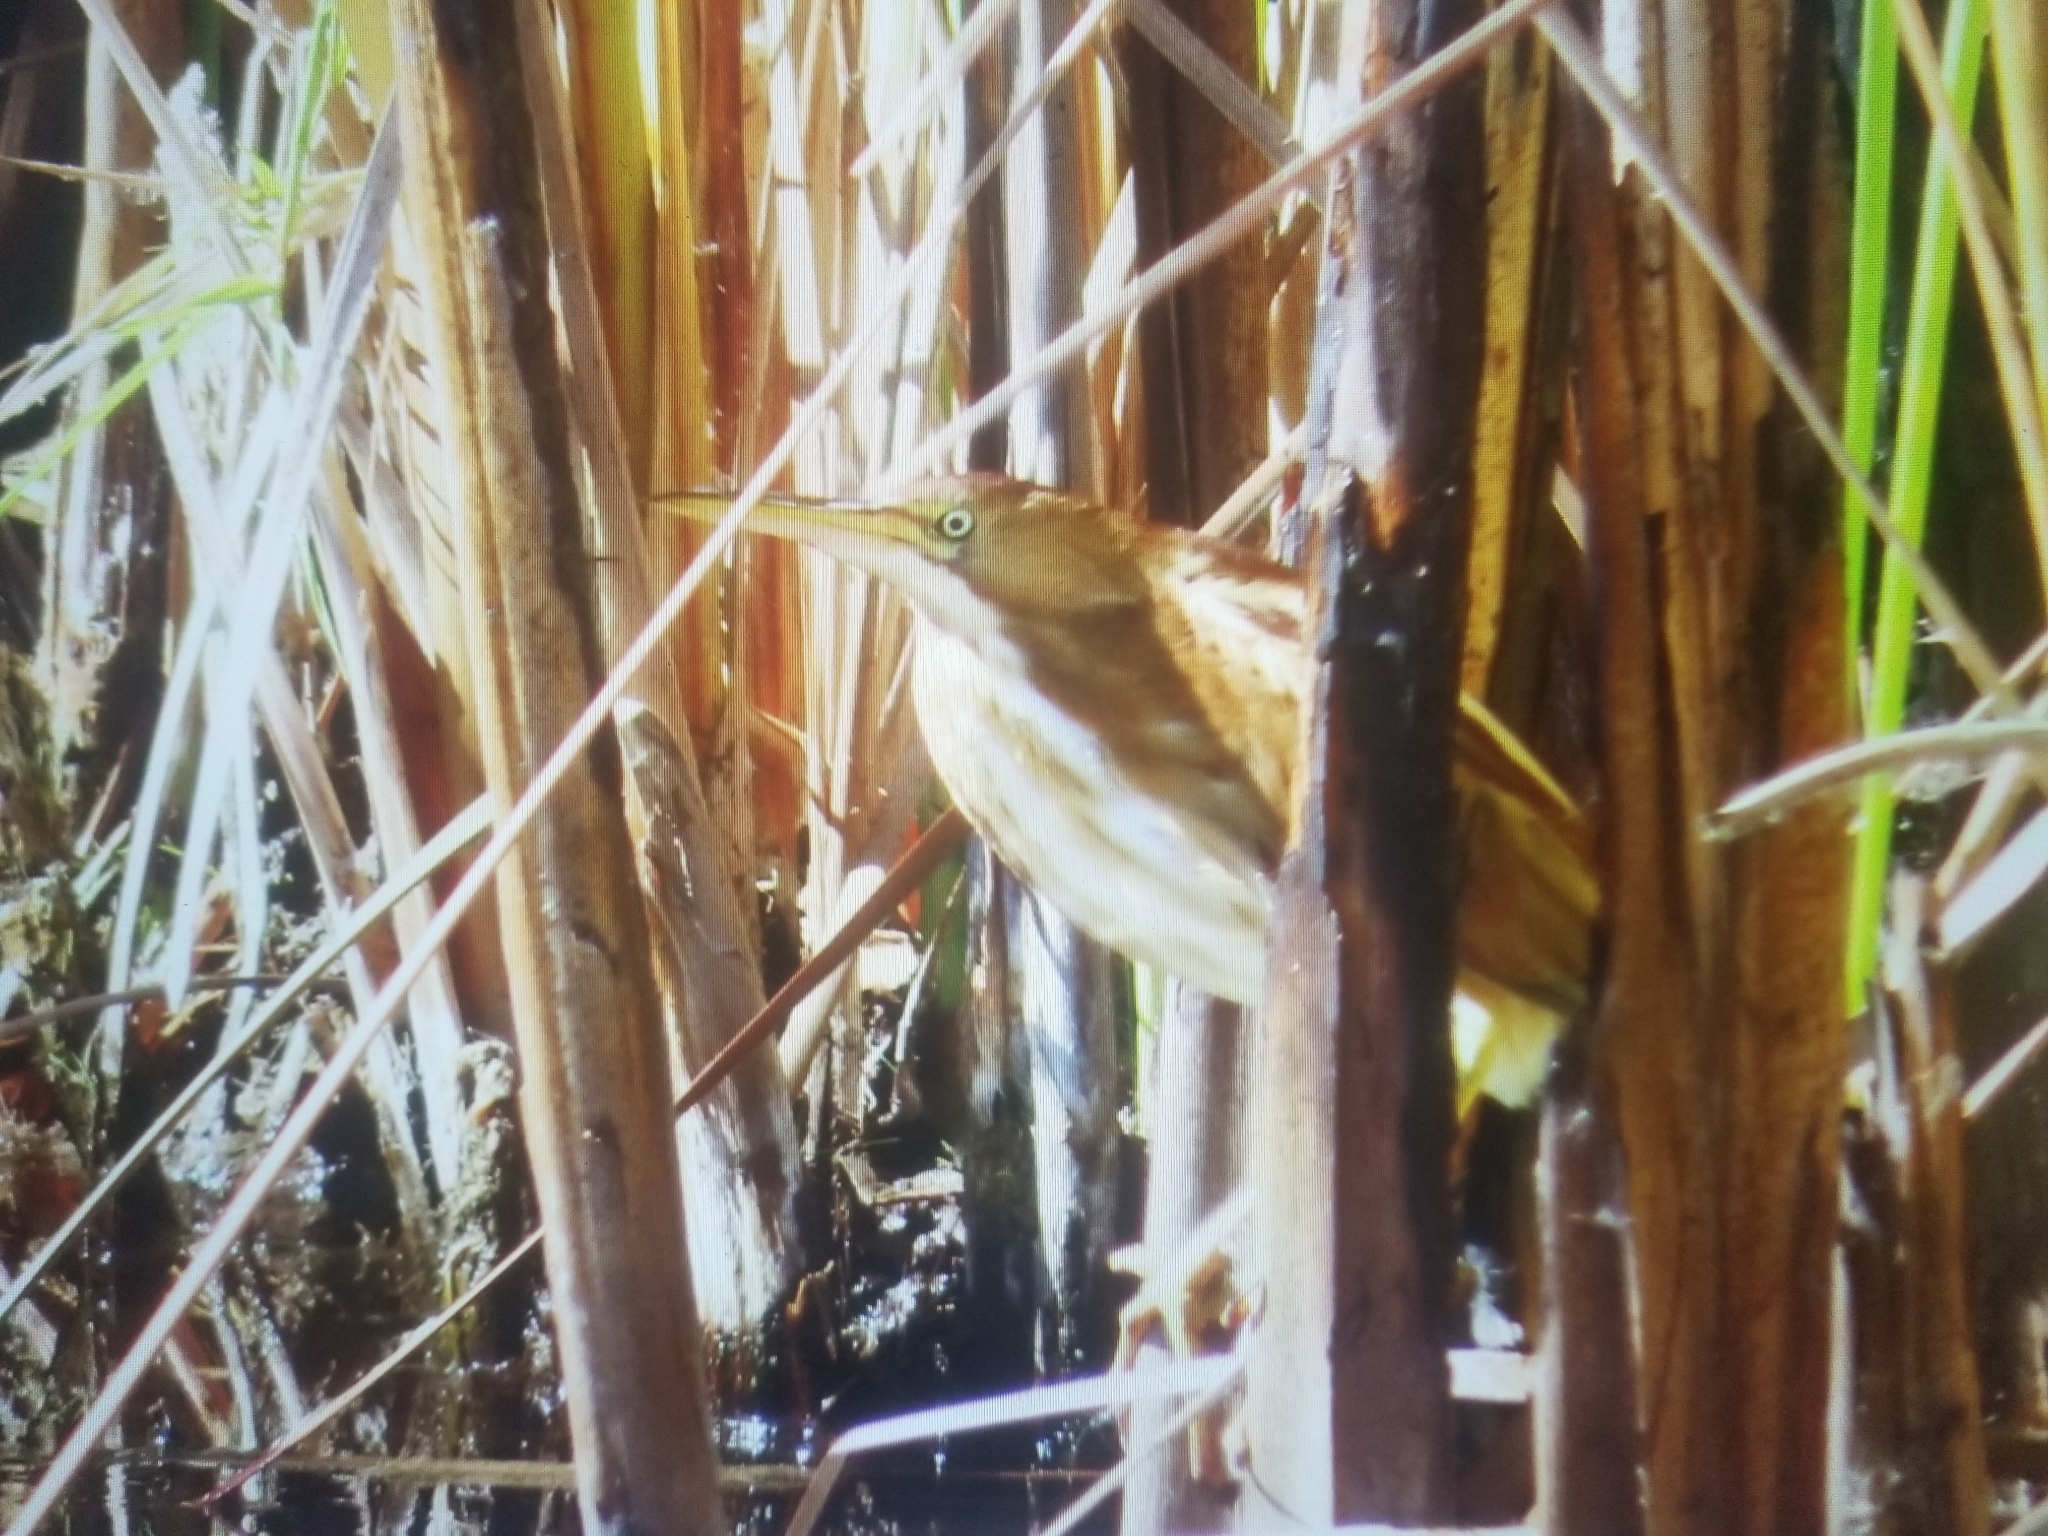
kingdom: Animalia
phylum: Chordata
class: Aves
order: Pelecaniformes
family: Ardeidae
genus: Ixobrychus
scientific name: Ixobrychus exilis
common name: Least bittern
